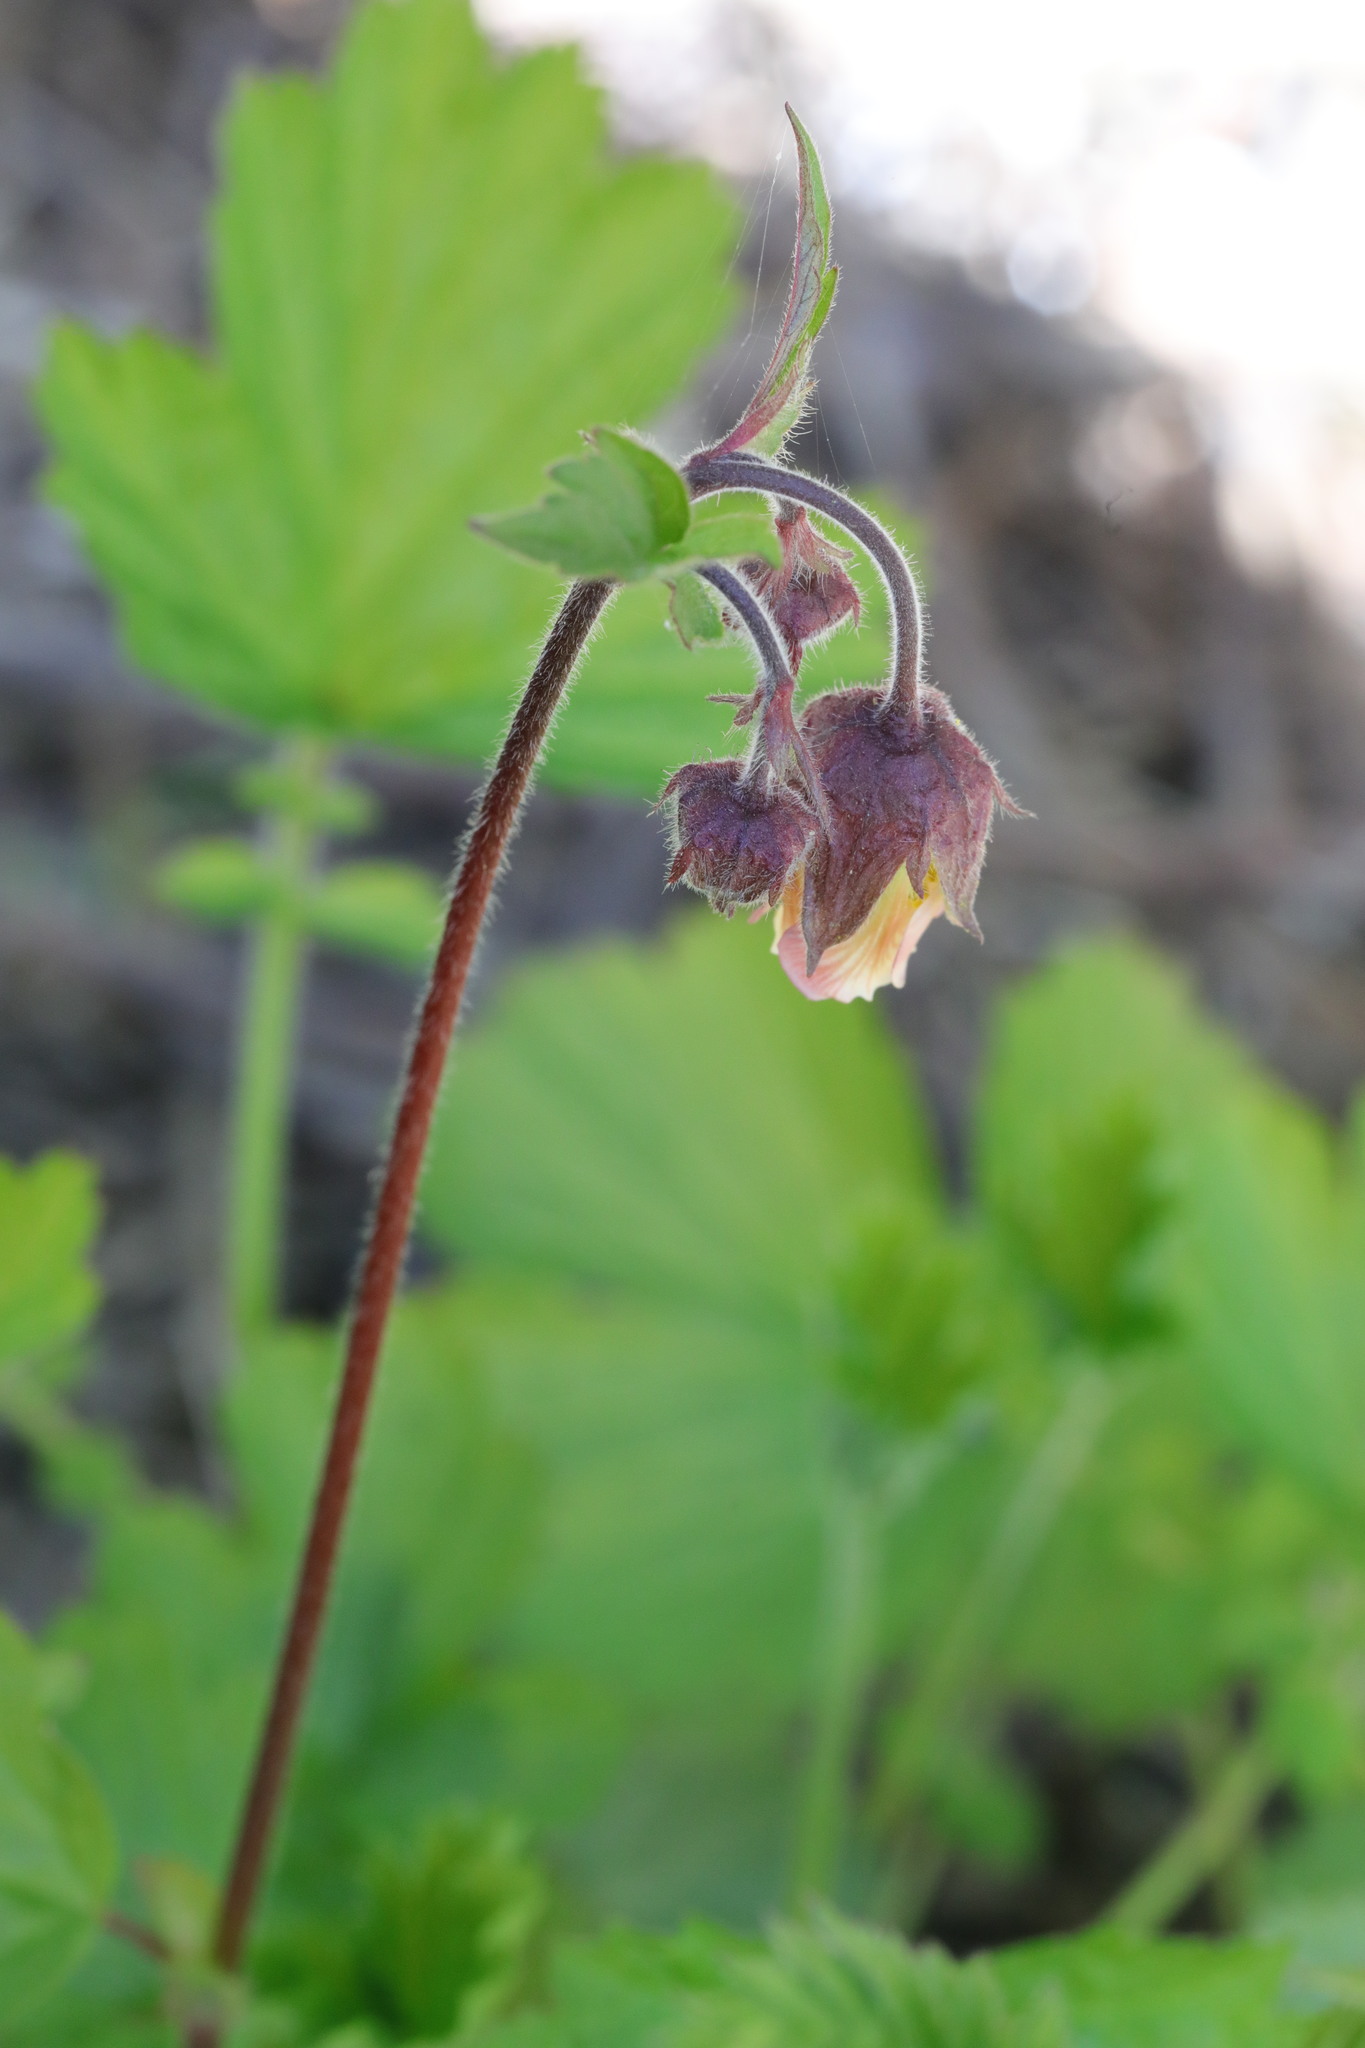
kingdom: Plantae
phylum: Tracheophyta
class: Magnoliopsida
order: Rosales
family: Rosaceae
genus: Geum
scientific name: Geum rivale
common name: Water avens
